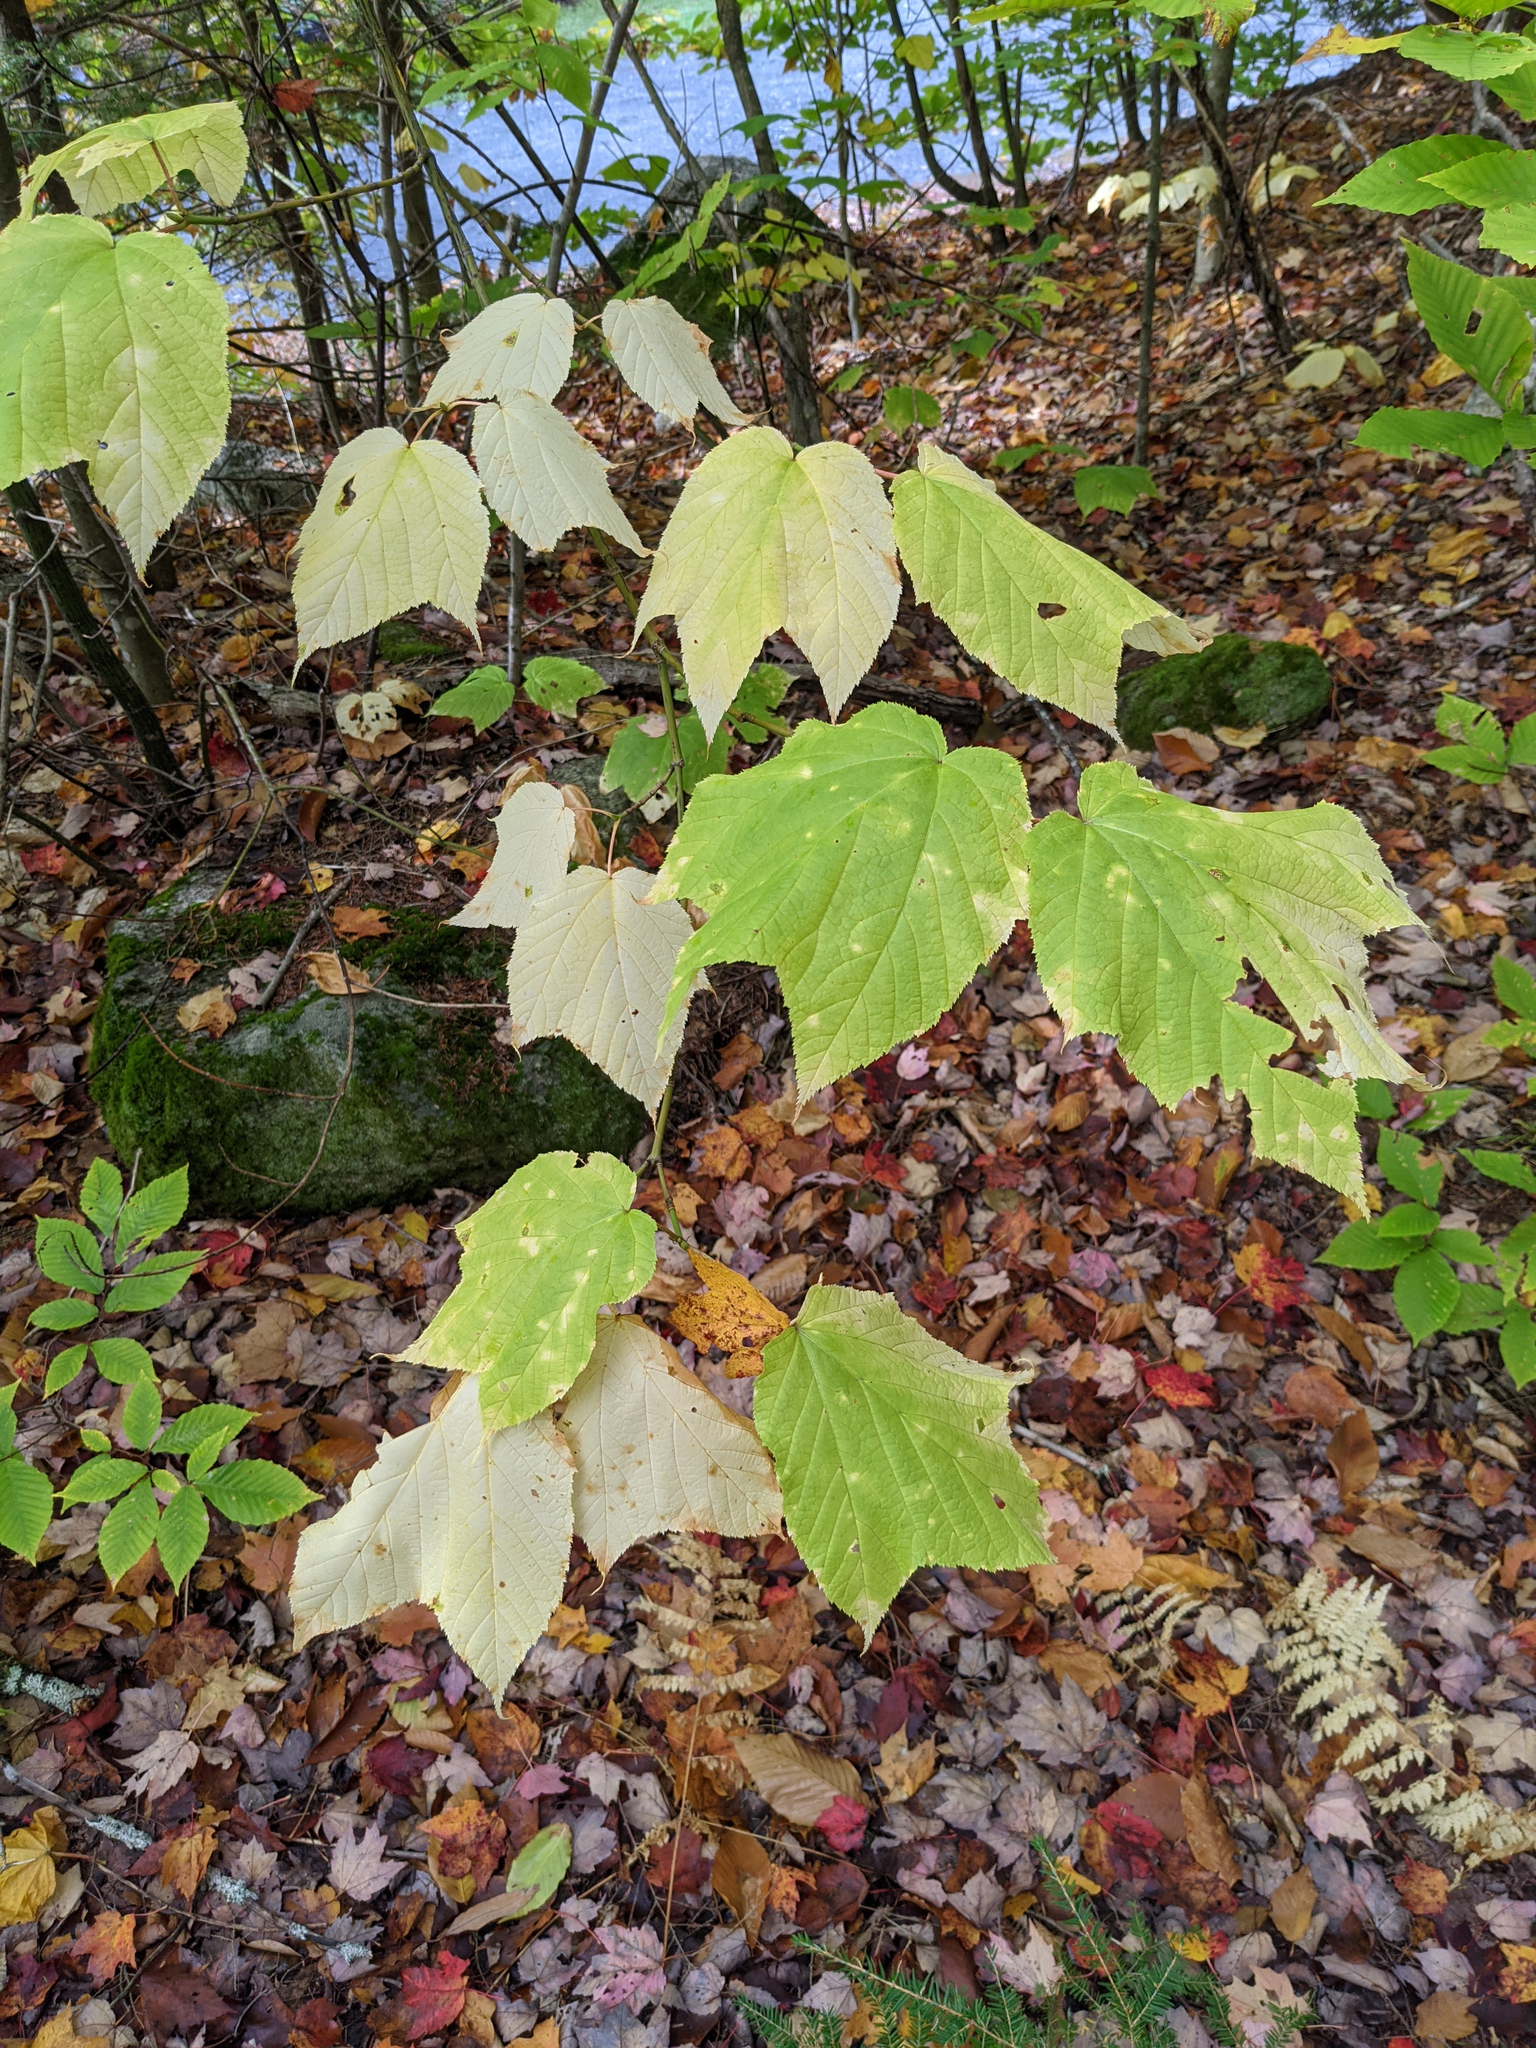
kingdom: Plantae
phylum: Tracheophyta
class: Magnoliopsida
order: Sapindales
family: Sapindaceae
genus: Acer
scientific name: Acer pensylvanicum
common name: Moosewood
